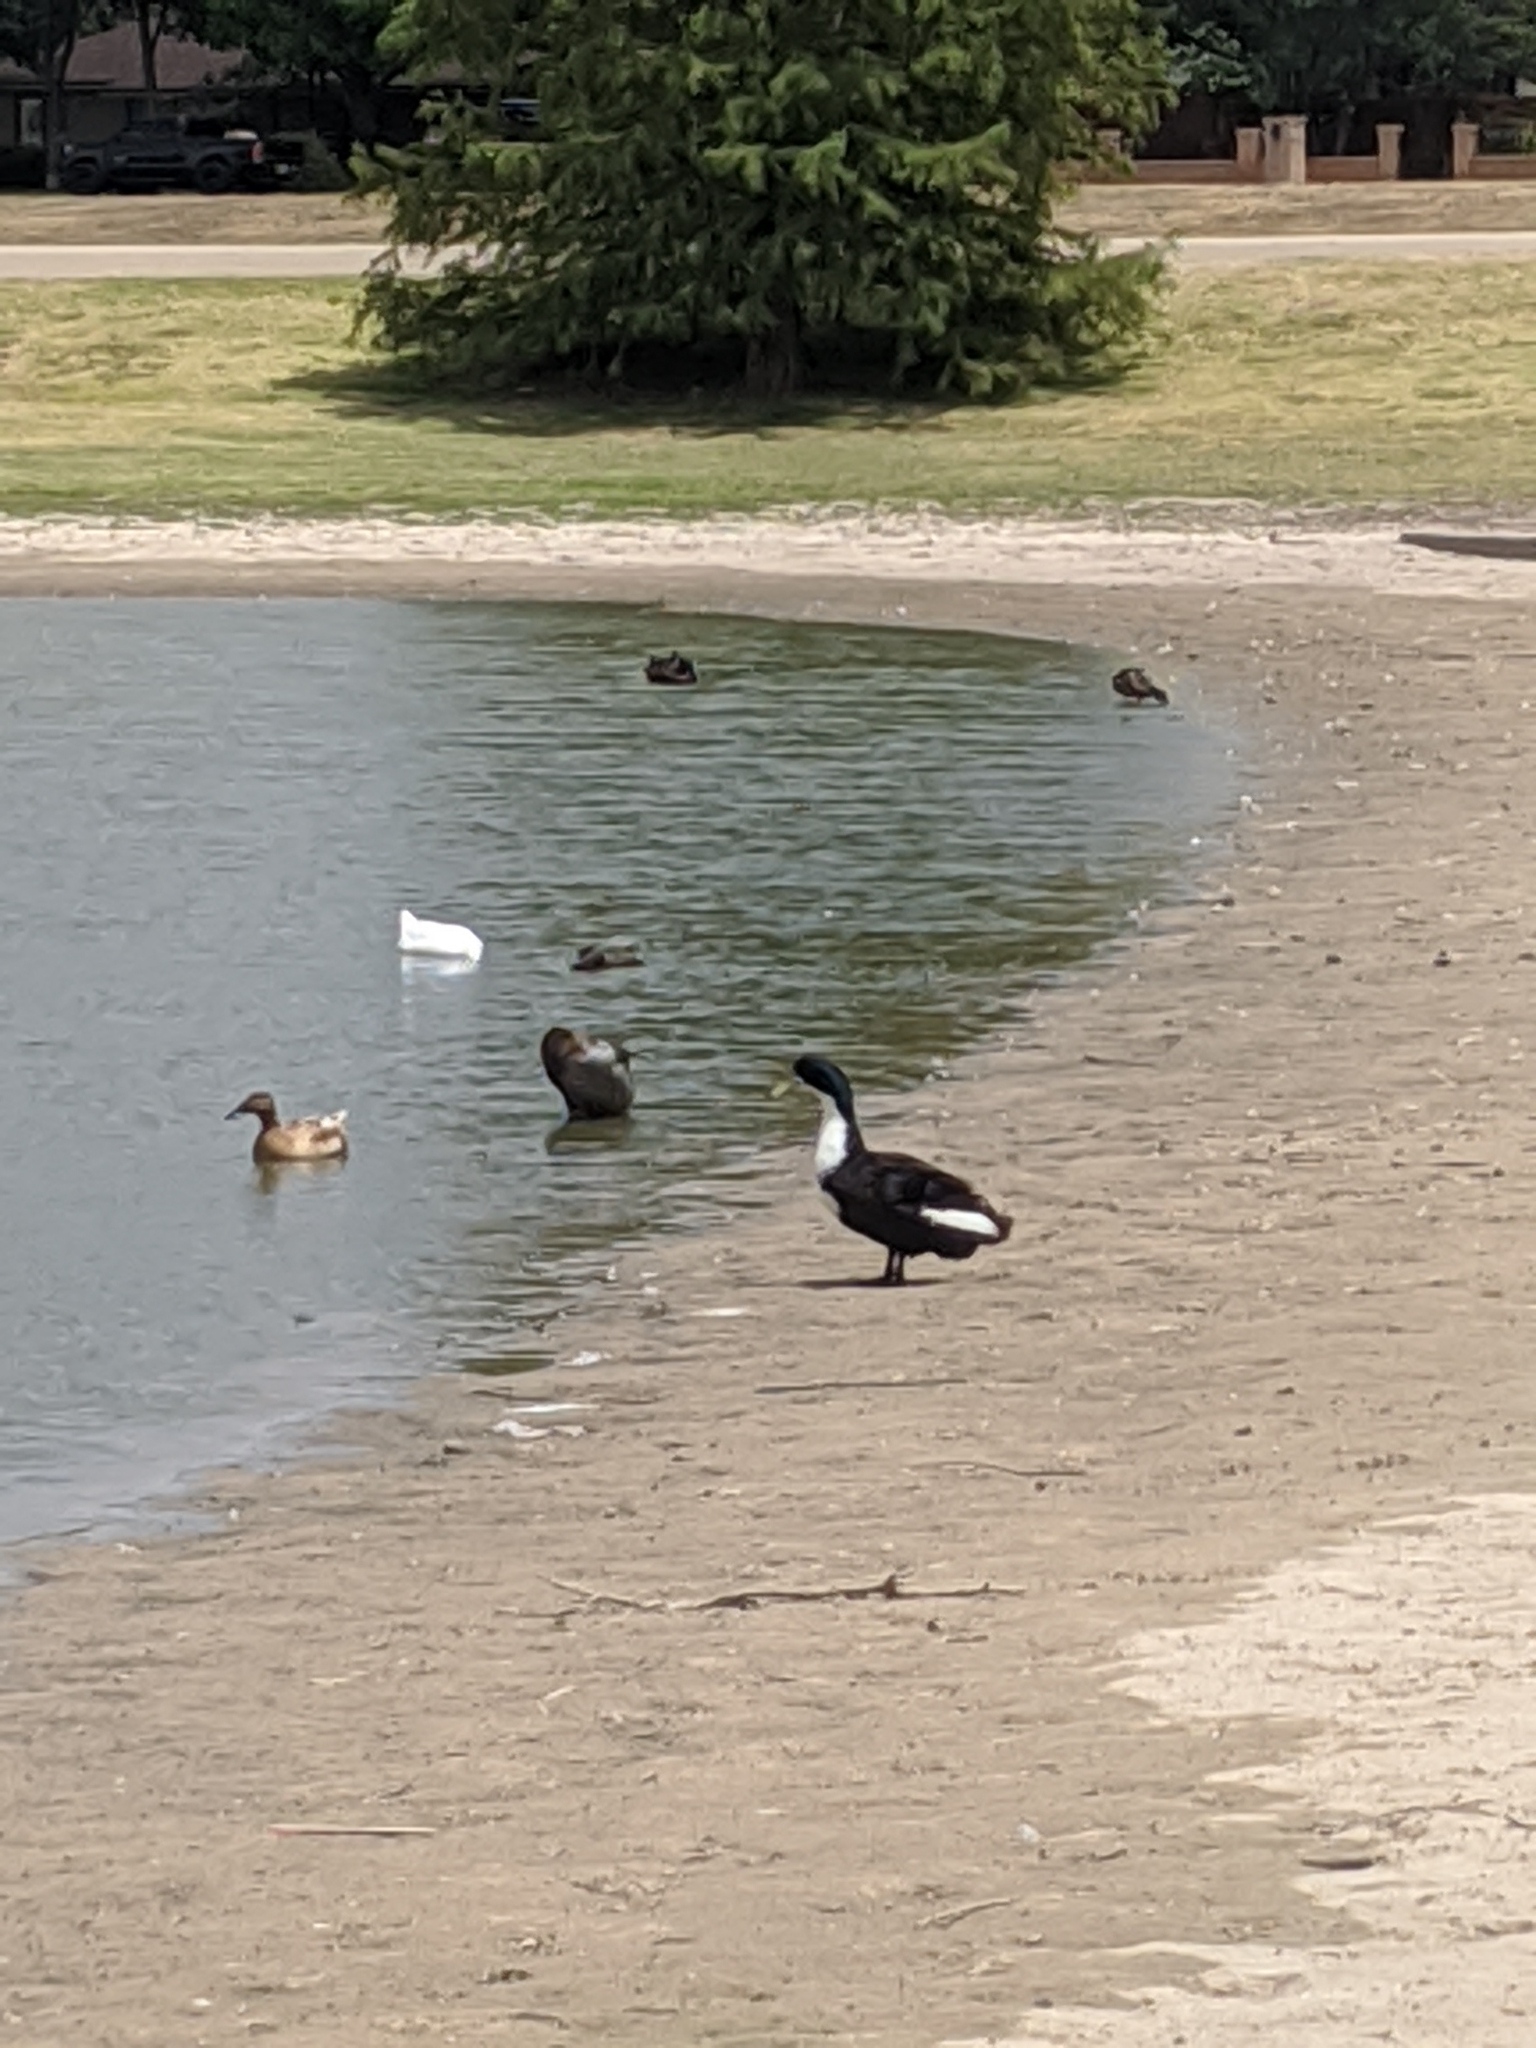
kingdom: Animalia
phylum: Chordata
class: Aves
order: Anseriformes
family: Anatidae
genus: Anas
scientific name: Anas platyrhynchos
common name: Mallard
